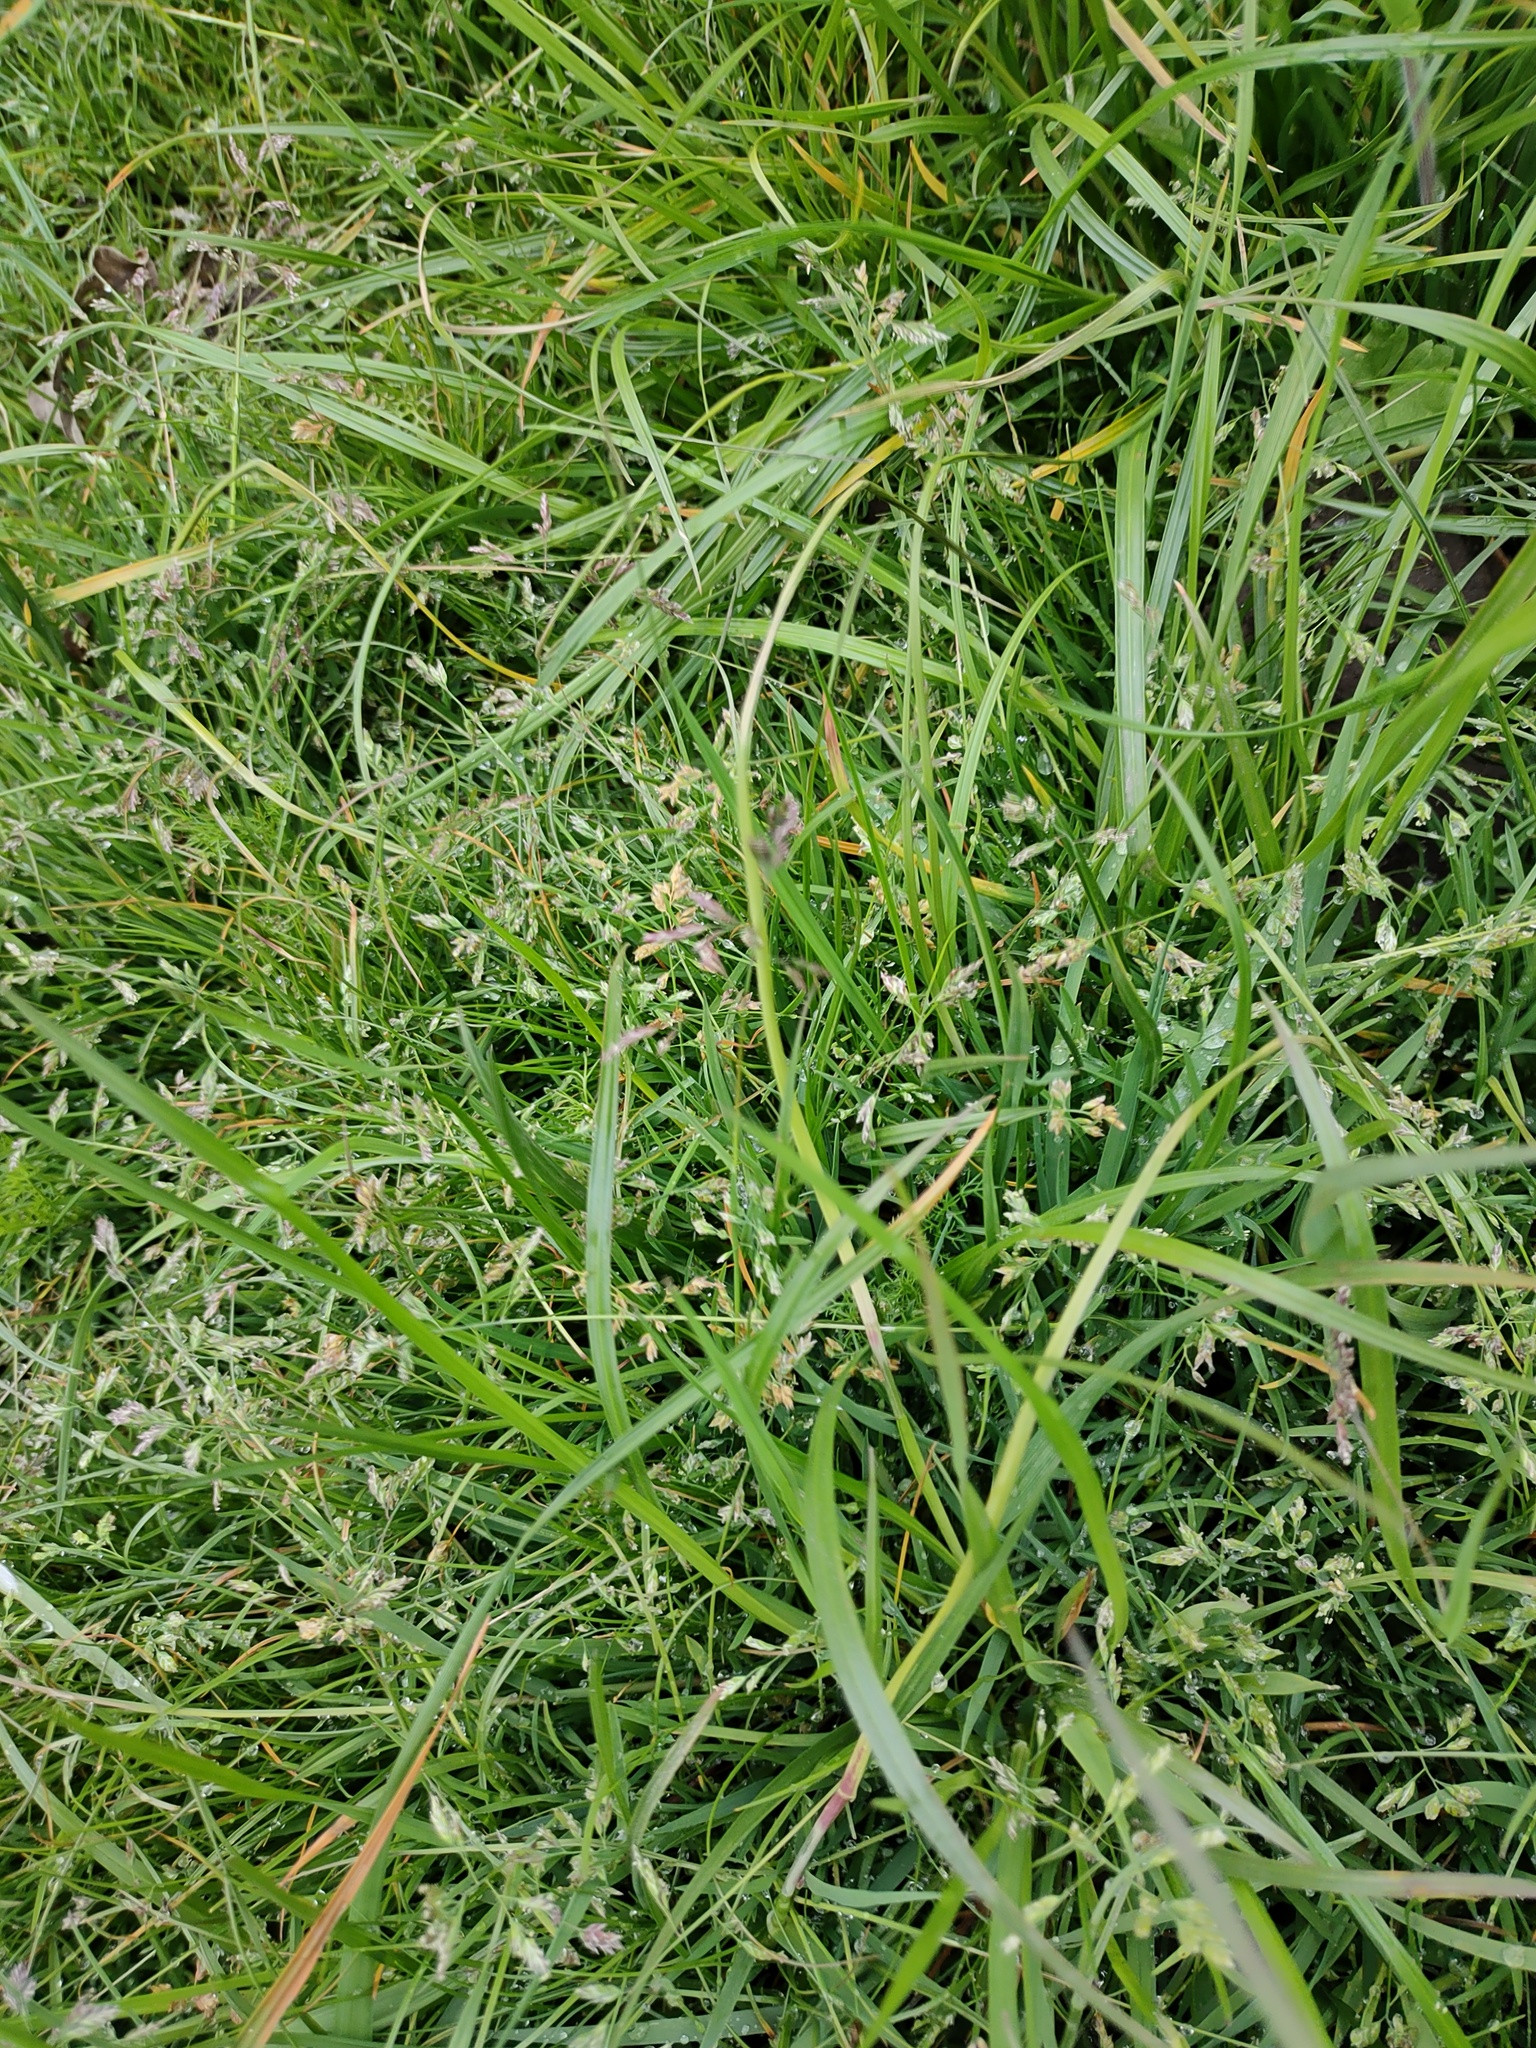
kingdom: Plantae
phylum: Tracheophyta
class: Liliopsida
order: Poales
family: Poaceae
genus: Poa
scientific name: Poa annua
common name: Annual bluegrass
